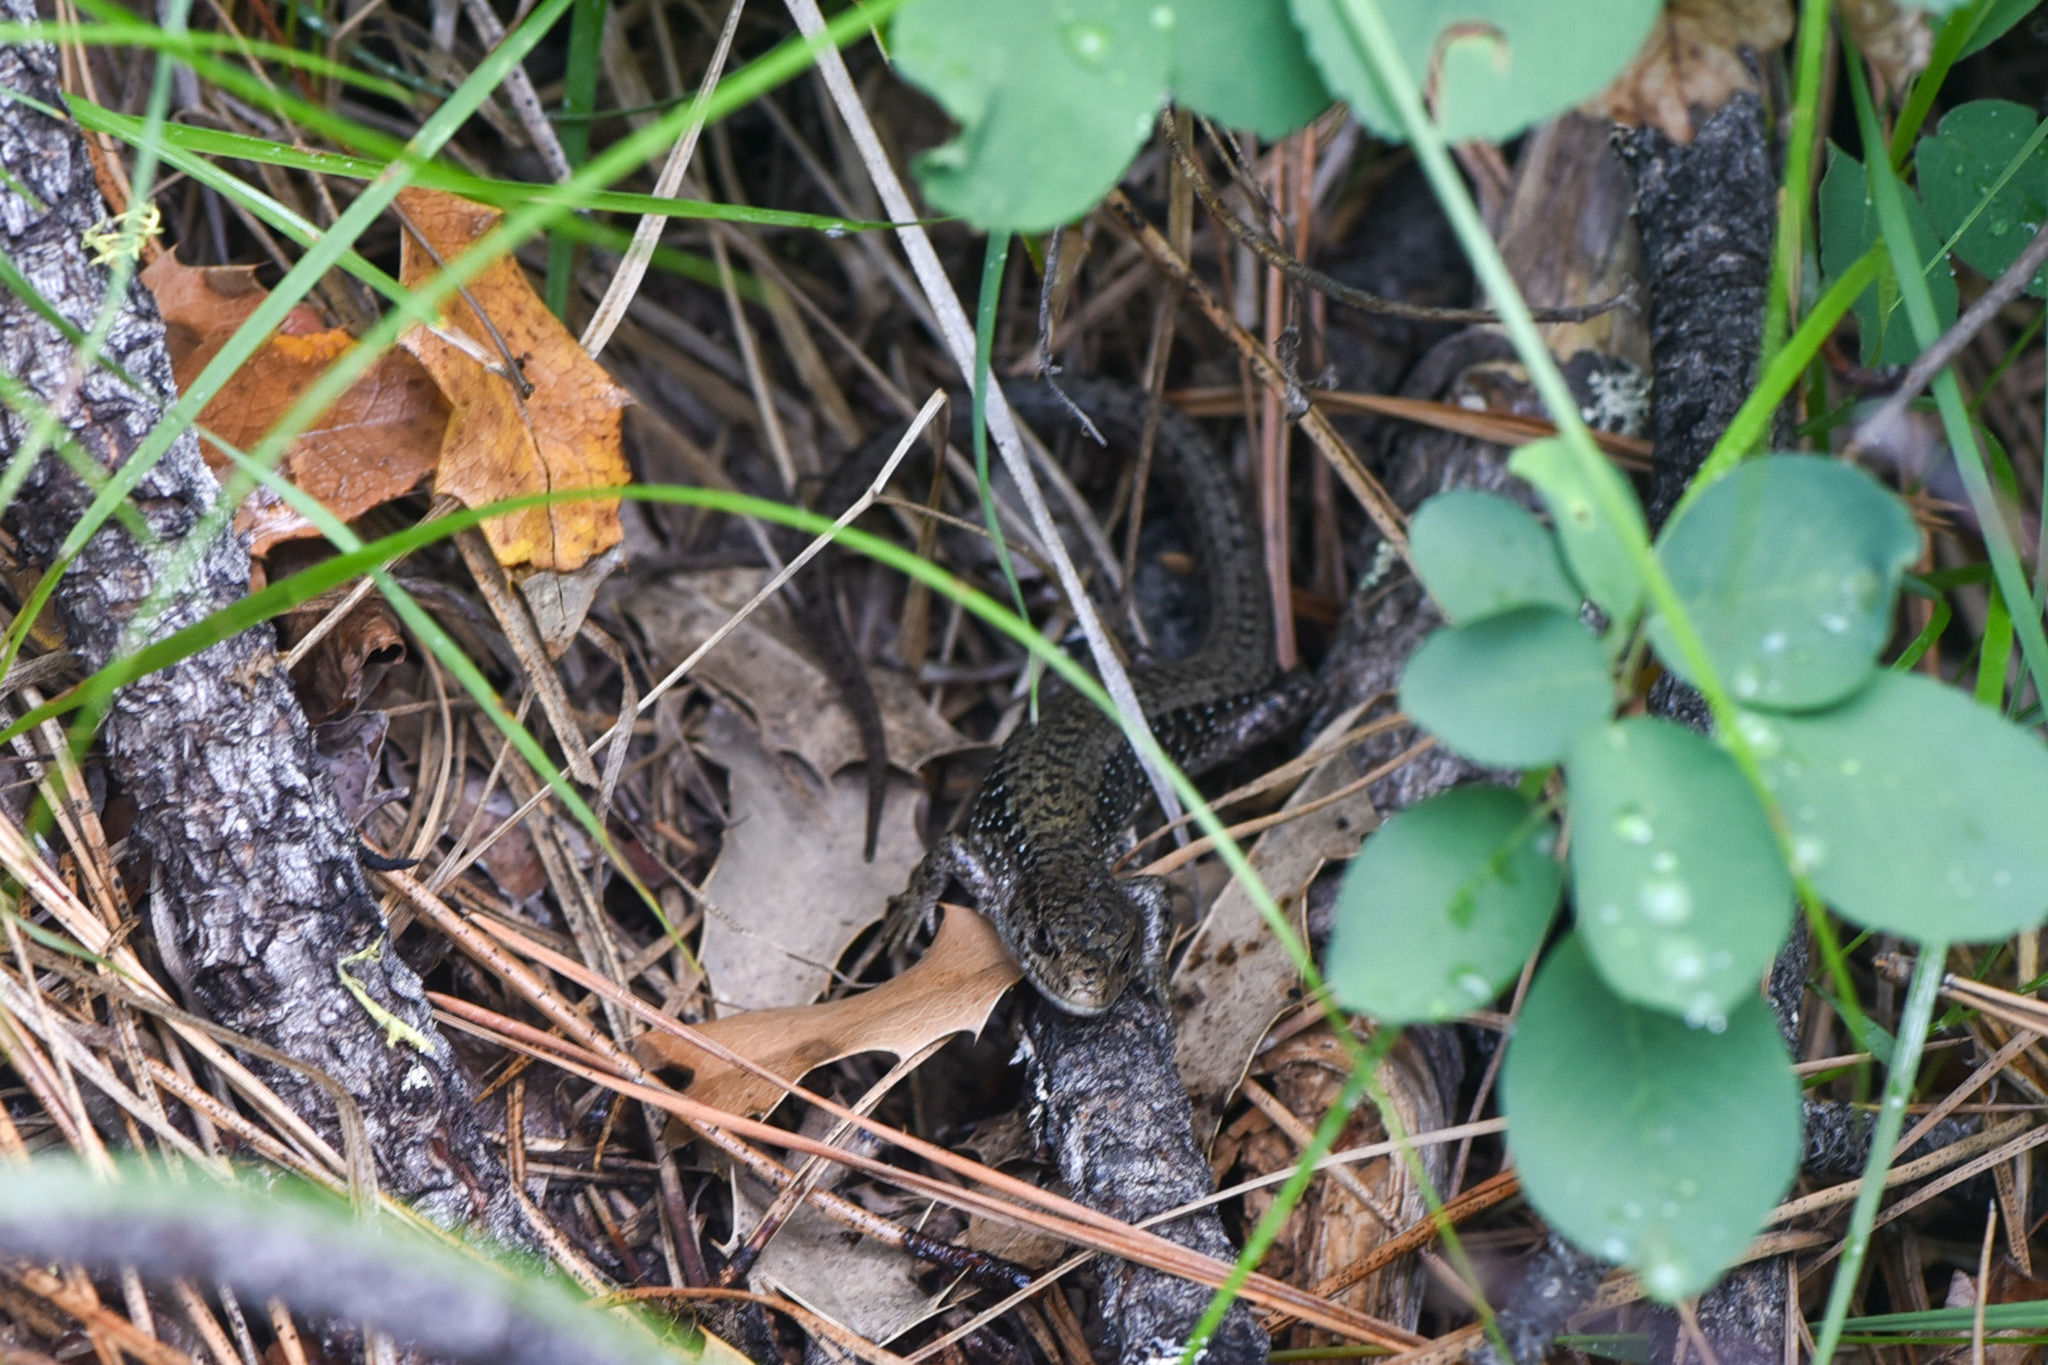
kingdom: Animalia
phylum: Chordata
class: Squamata
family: Anguidae
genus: Elgaria
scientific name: Elgaria coerulea
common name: Northern alligator lizard
